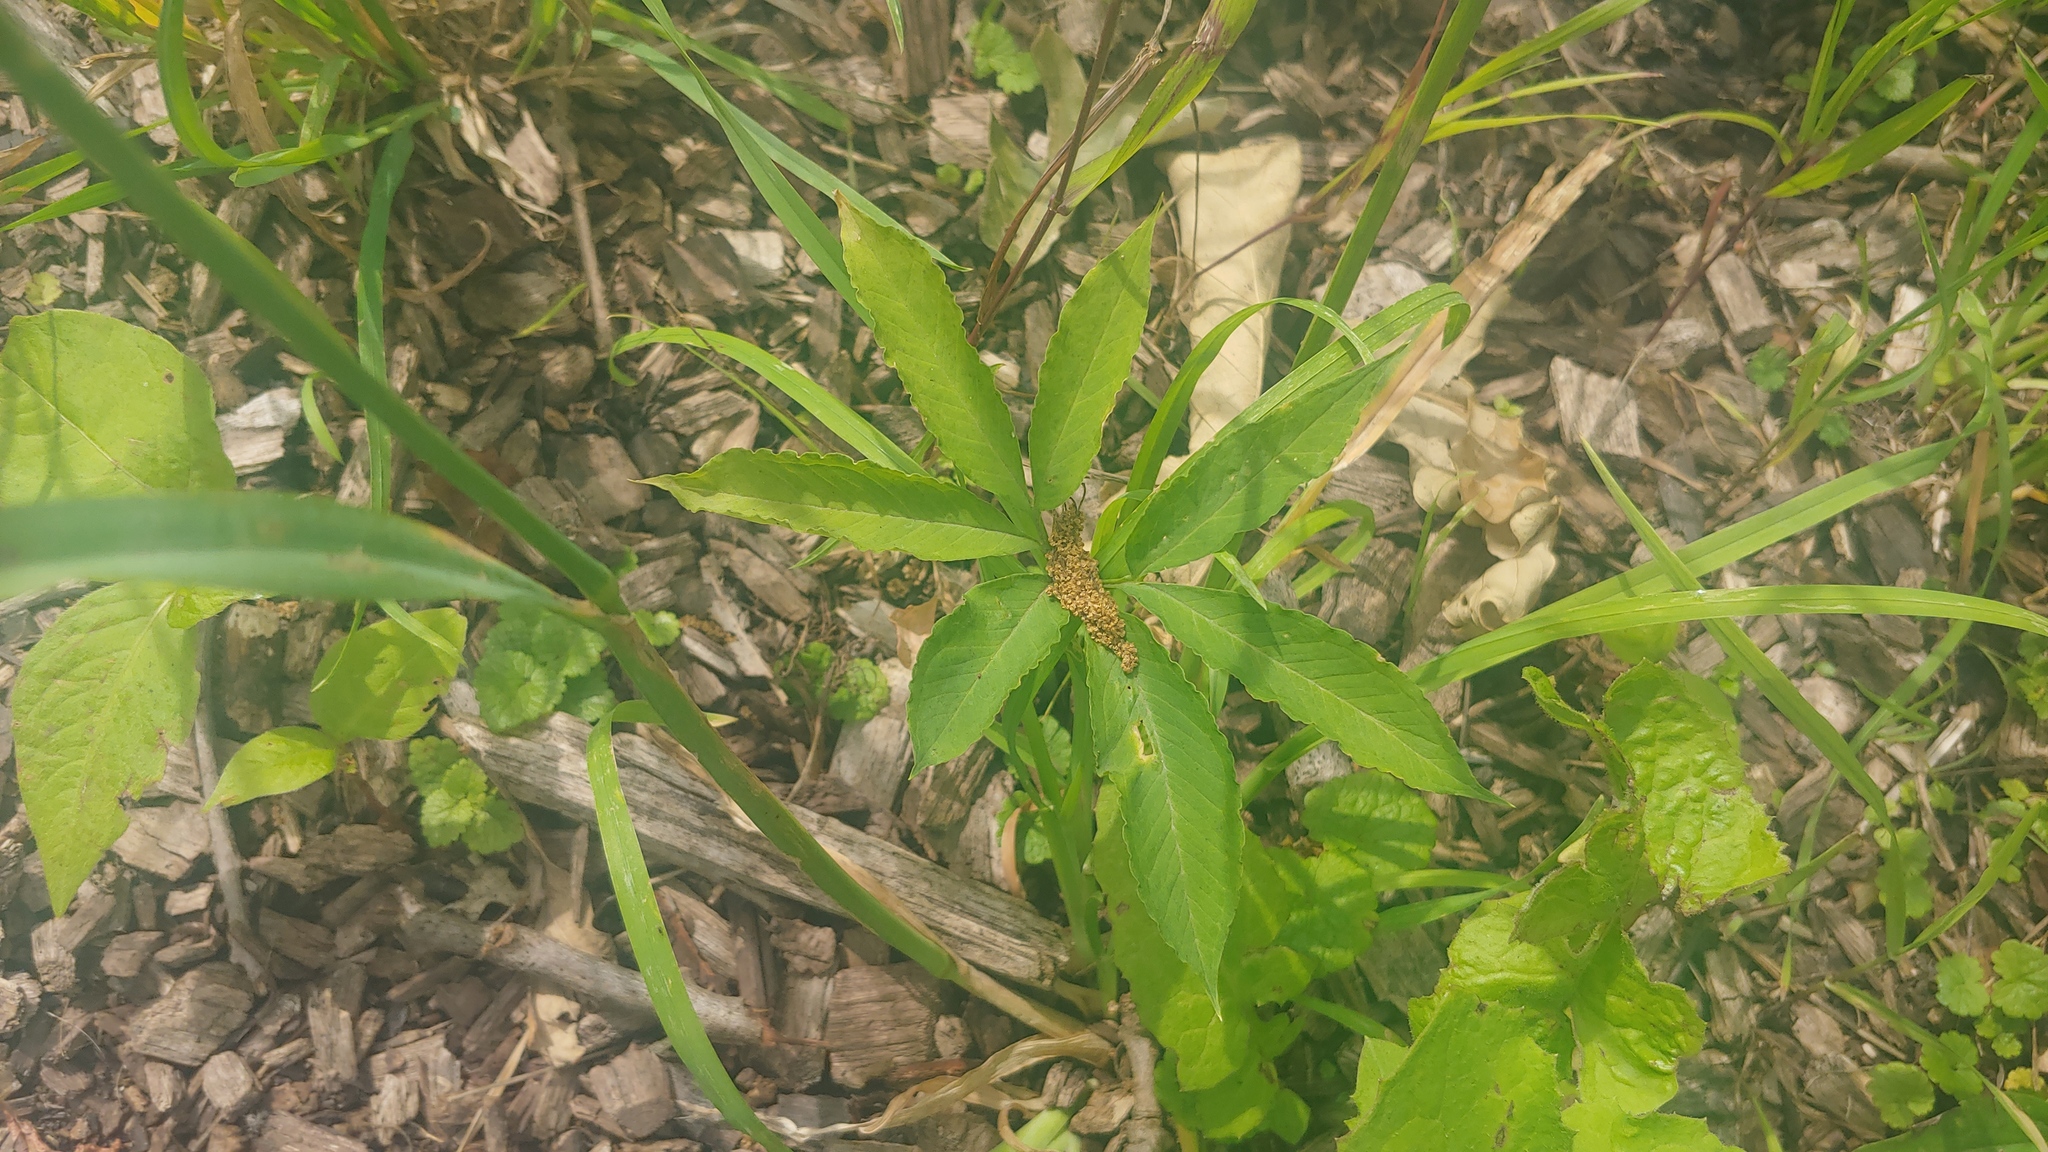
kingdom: Plantae
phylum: Tracheophyta
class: Liliopsida
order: Alismatales
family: Araceae
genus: Arisaema
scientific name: Arisaema dracontium
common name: Dragon-arum
